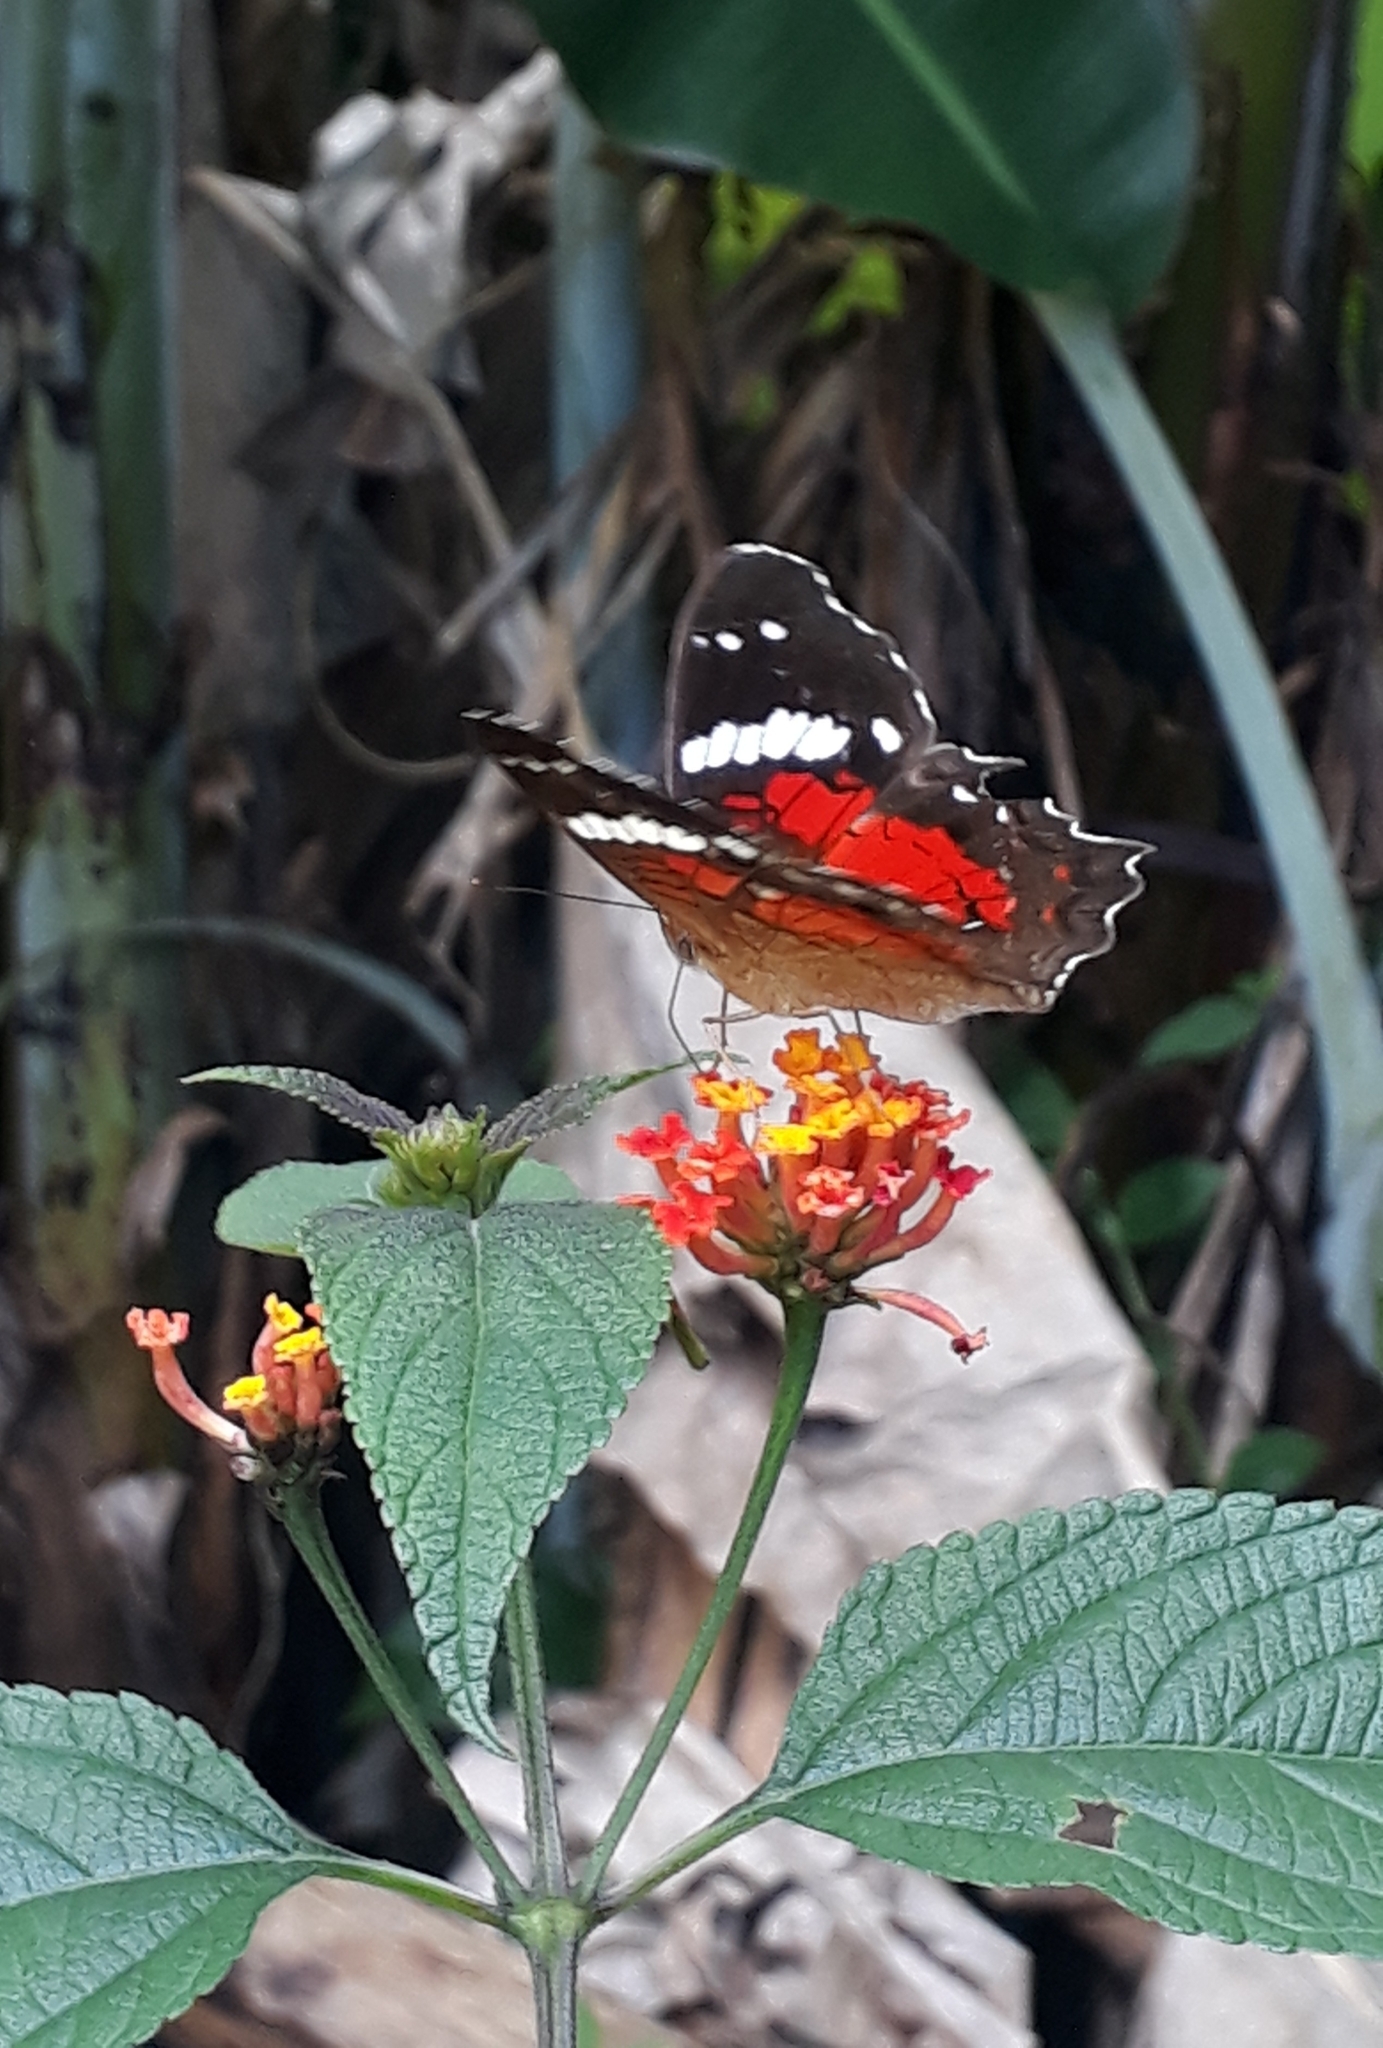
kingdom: Animalia
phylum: Arthropoda
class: Insecta
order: Lepidoptera
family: Nymphalidae
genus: Anartia
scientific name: Anartia amathea
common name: Red peacock
